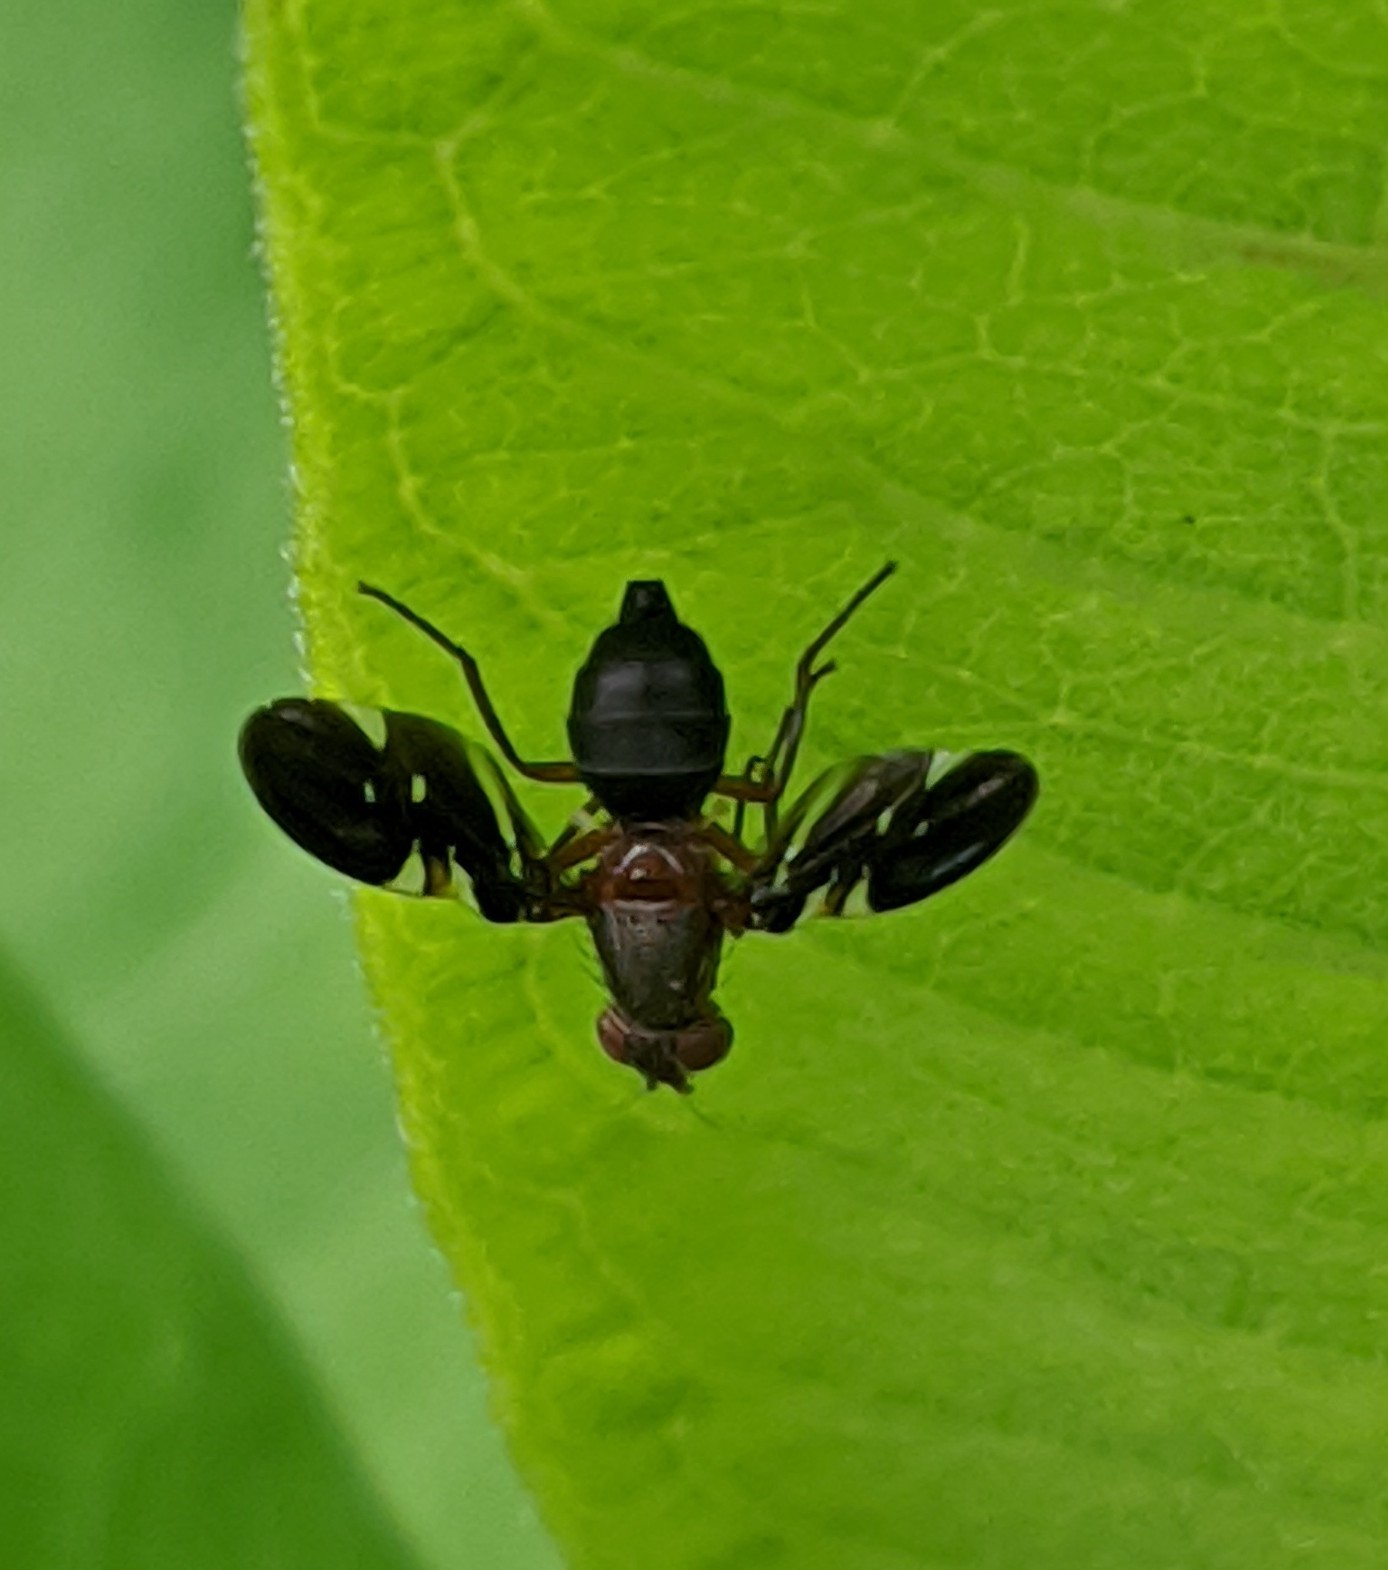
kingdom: Animalia
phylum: Arthropoda
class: Insecta
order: Diptera
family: Ulidiidae
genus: Delphinia
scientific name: Delphinia picta
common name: Common picture-winged fly
